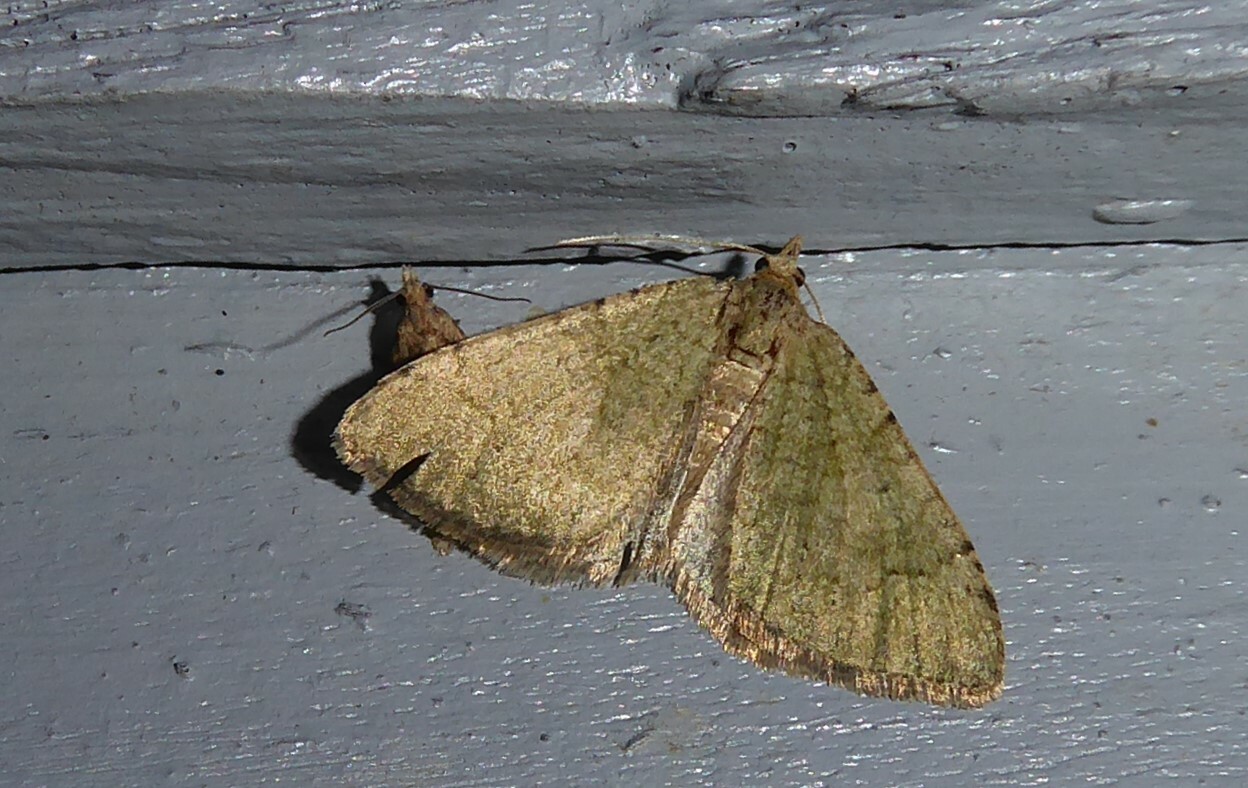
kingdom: Animalia
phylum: Arthropoda
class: Insecta
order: Lepidoptera
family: Geometridae
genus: Epyaxa
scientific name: Epyaxa rosearia
